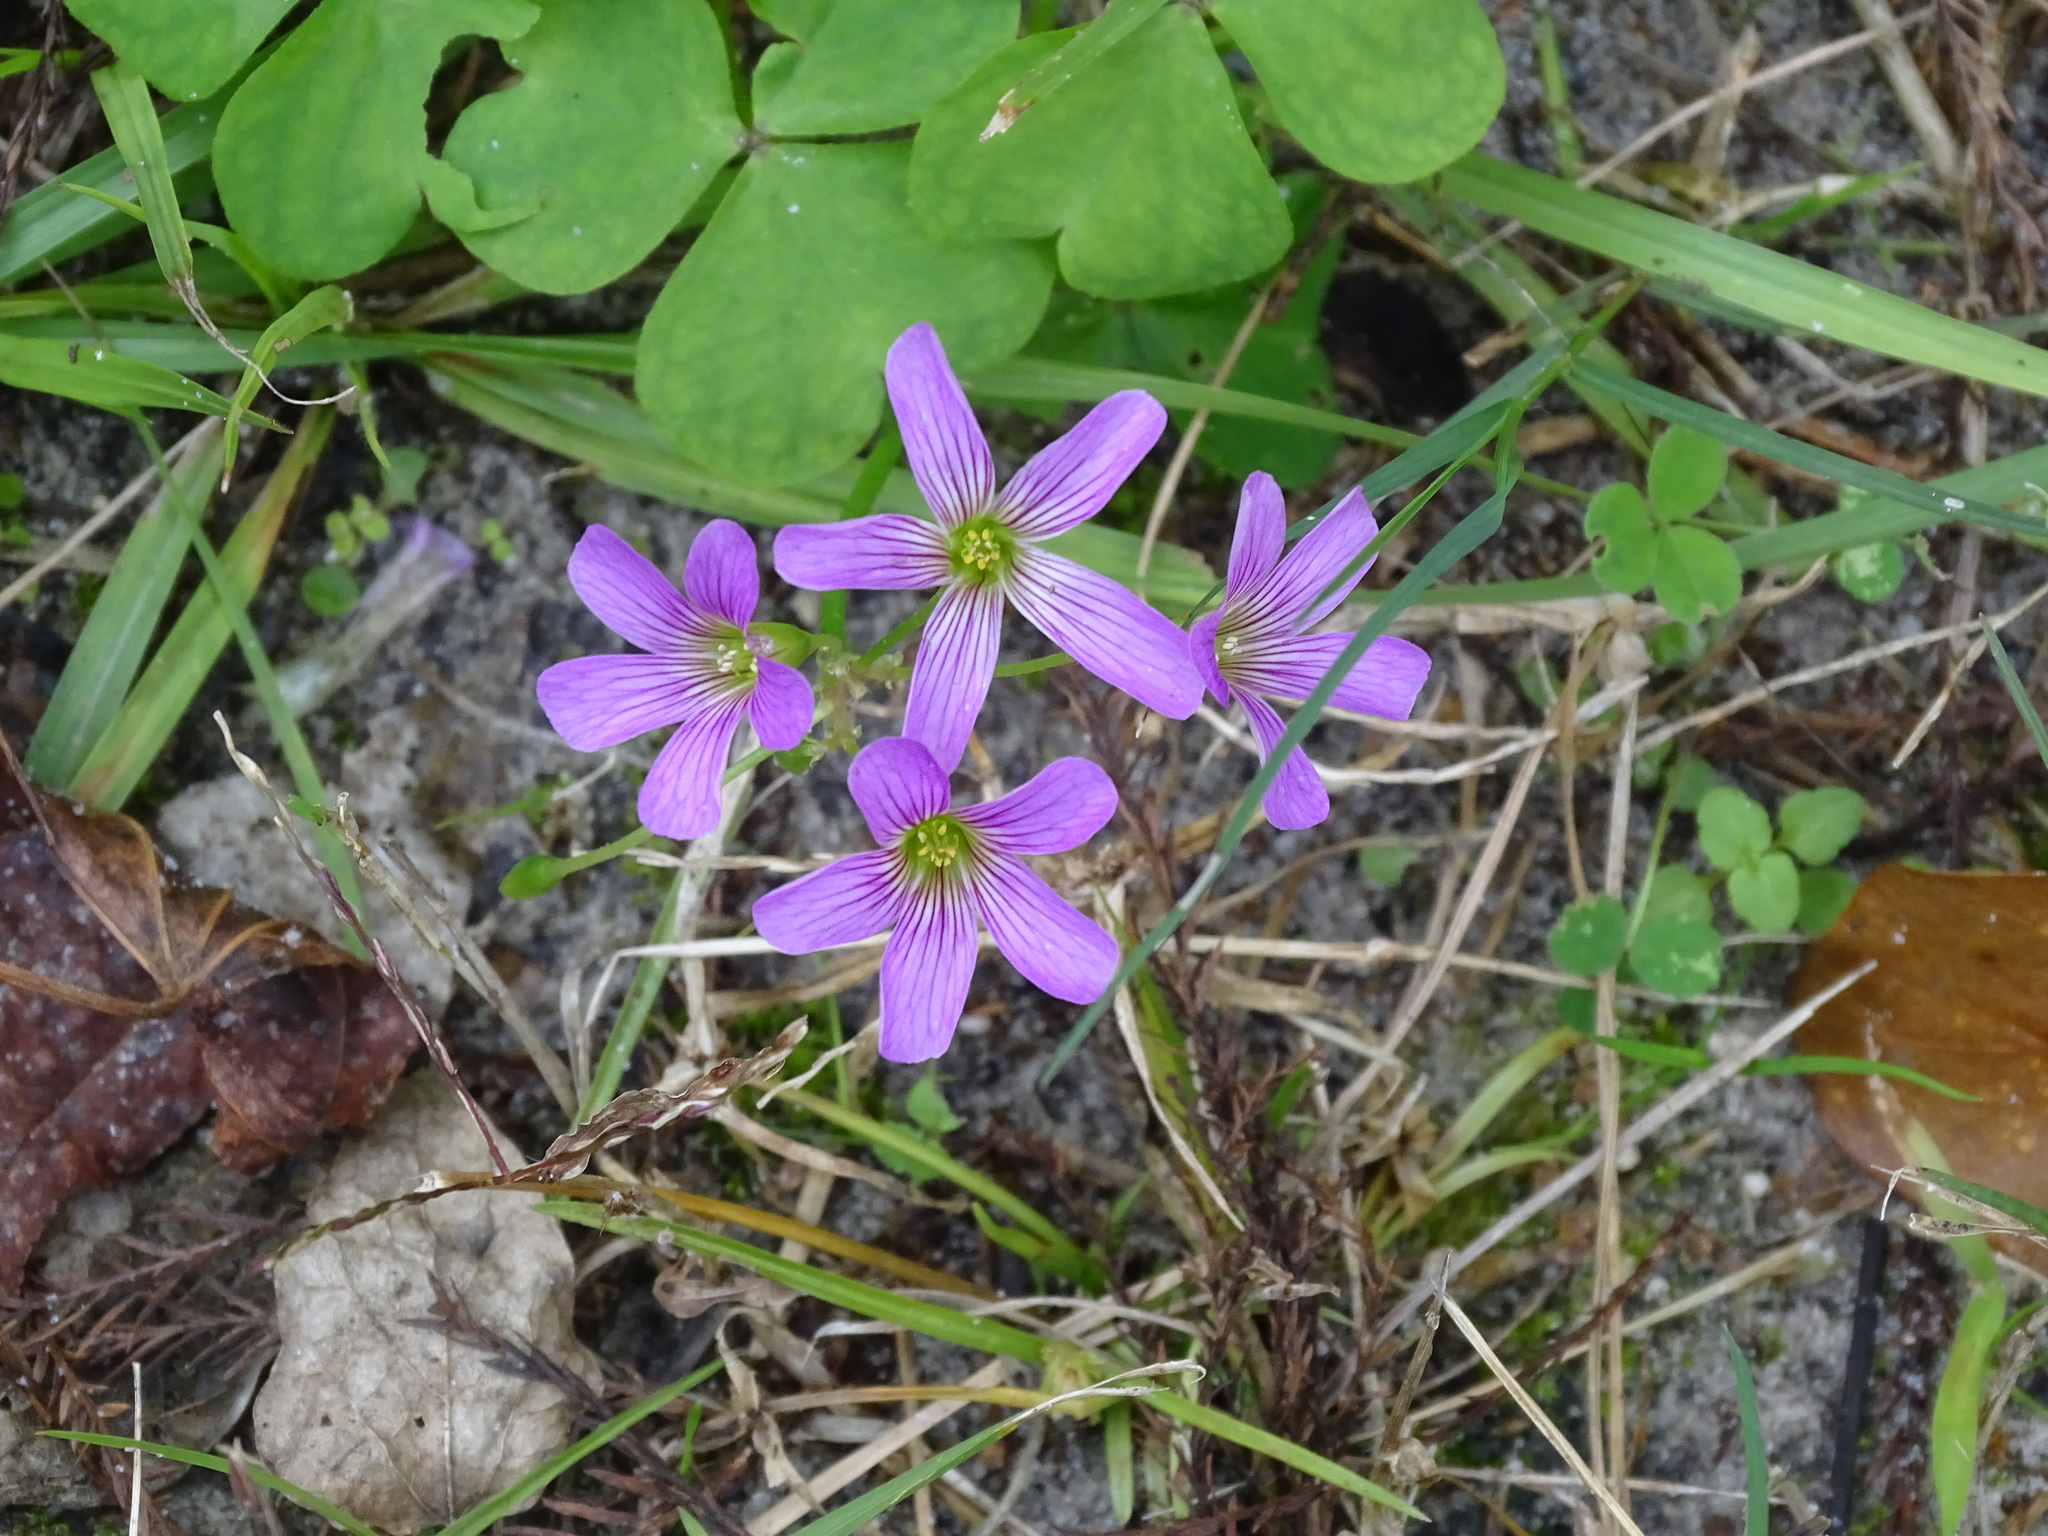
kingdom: Plantae
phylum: Tracheophyta
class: Magnoliopsida
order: Oxalidales
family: Oxalidaceae
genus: Oxalis
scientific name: Oxalis debilis
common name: Large-flowered pink-sorrel
